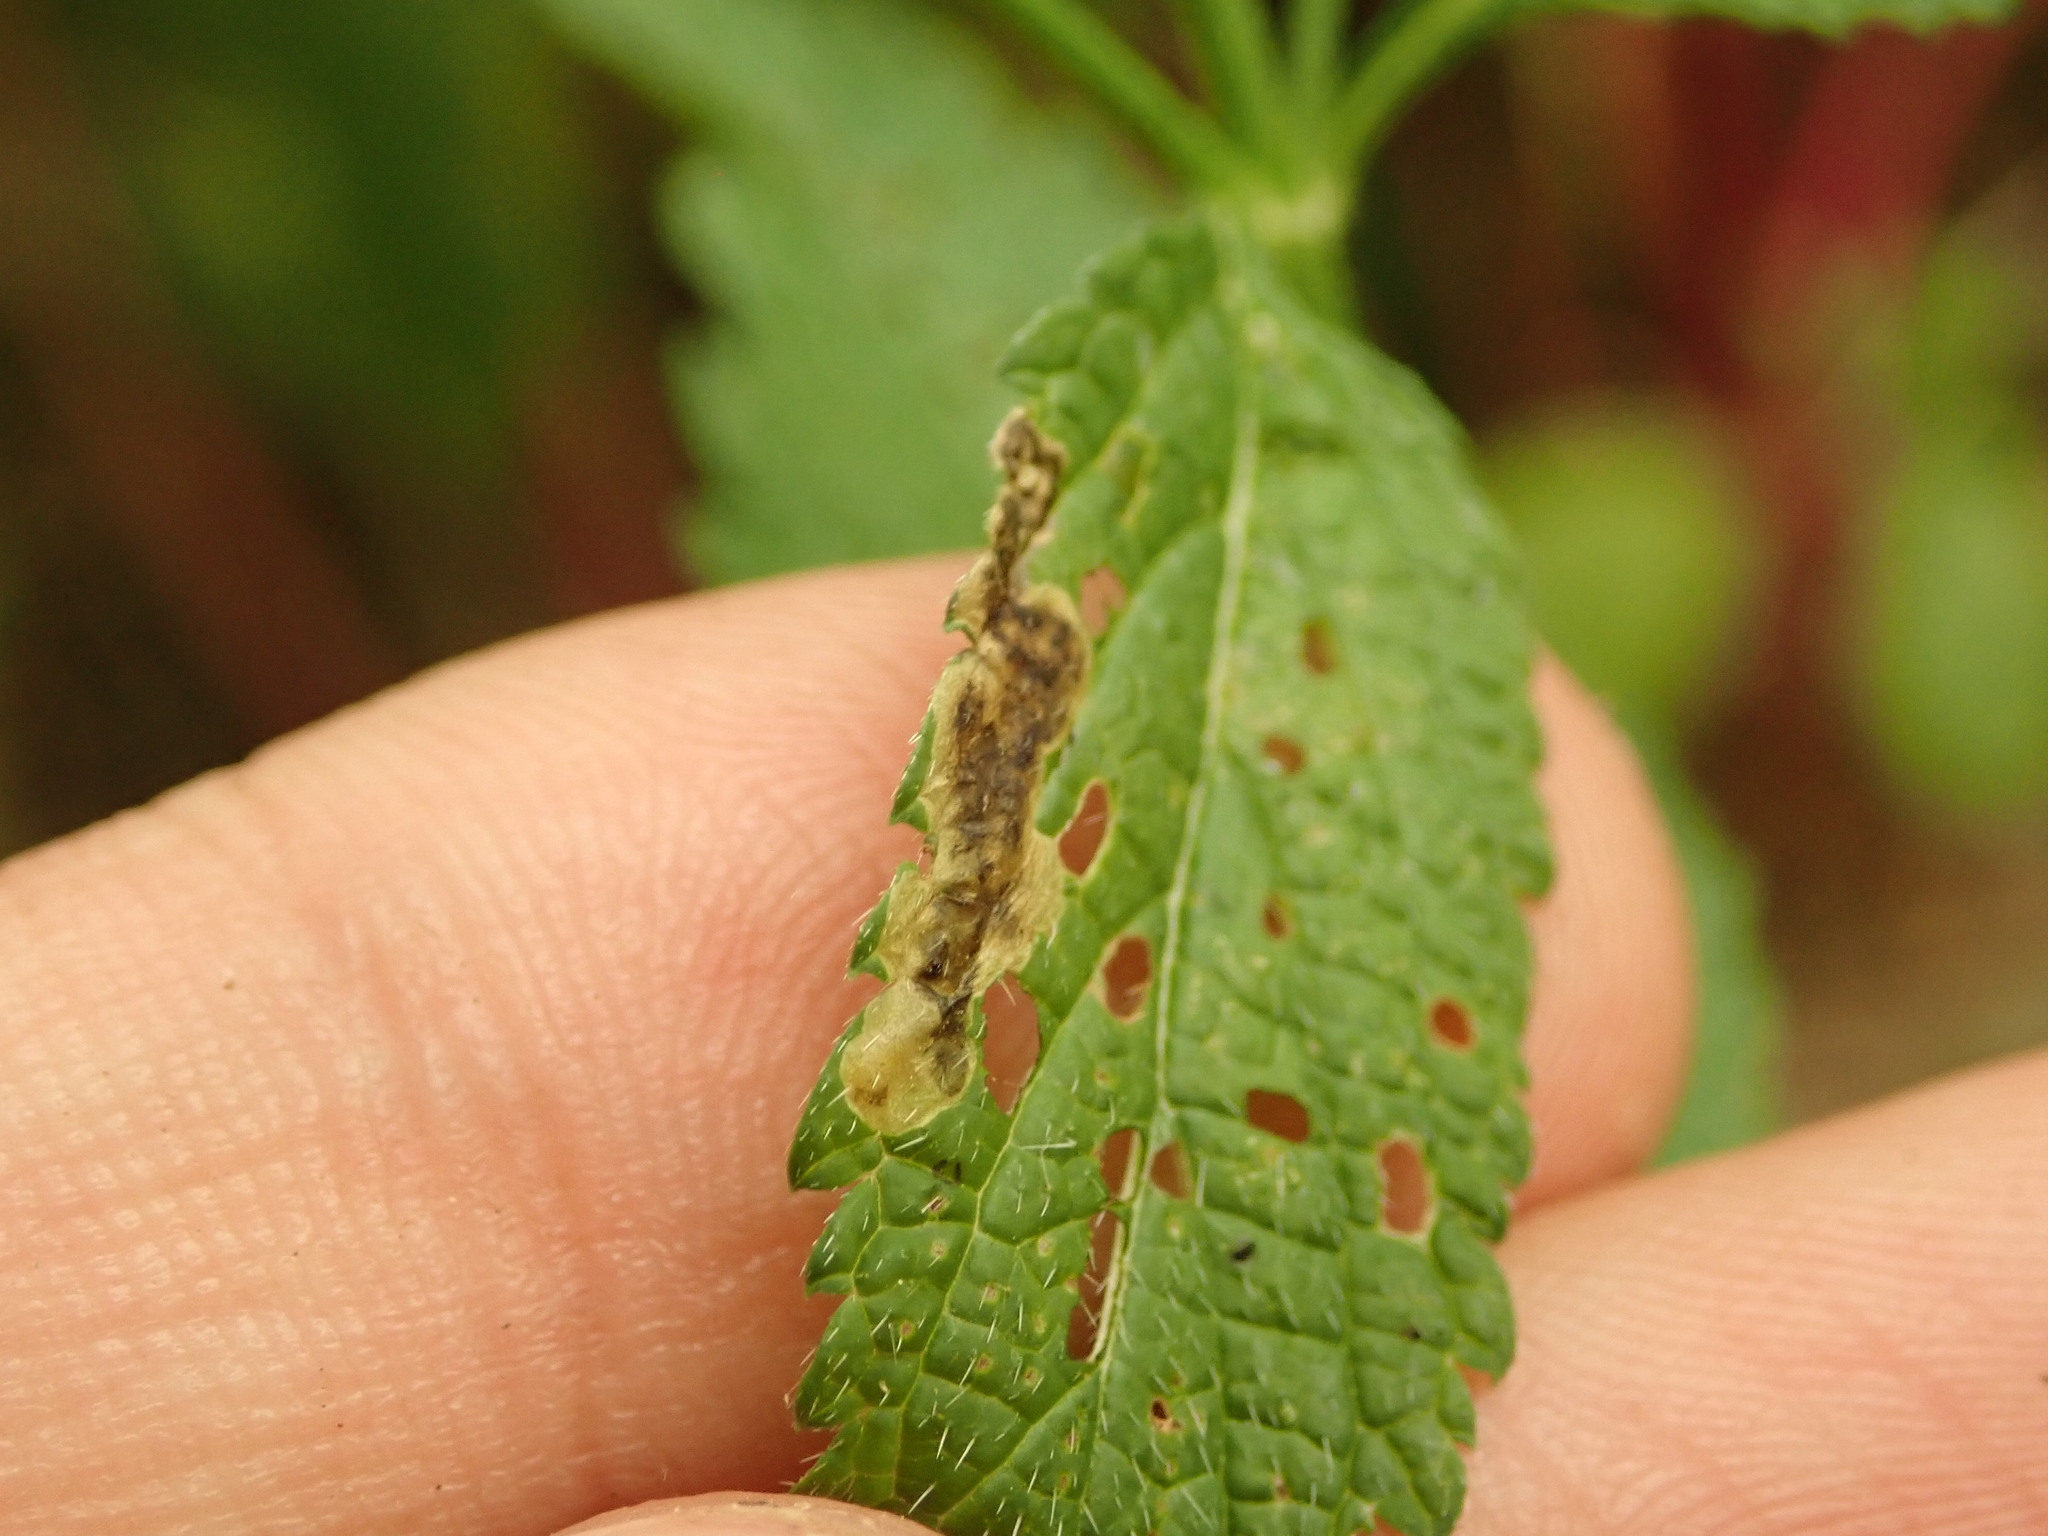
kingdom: Animalia
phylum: Arthropoda
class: Insecta
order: Diptera
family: Agromyzidae
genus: Calycomyza
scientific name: Calycomyza verbenae
